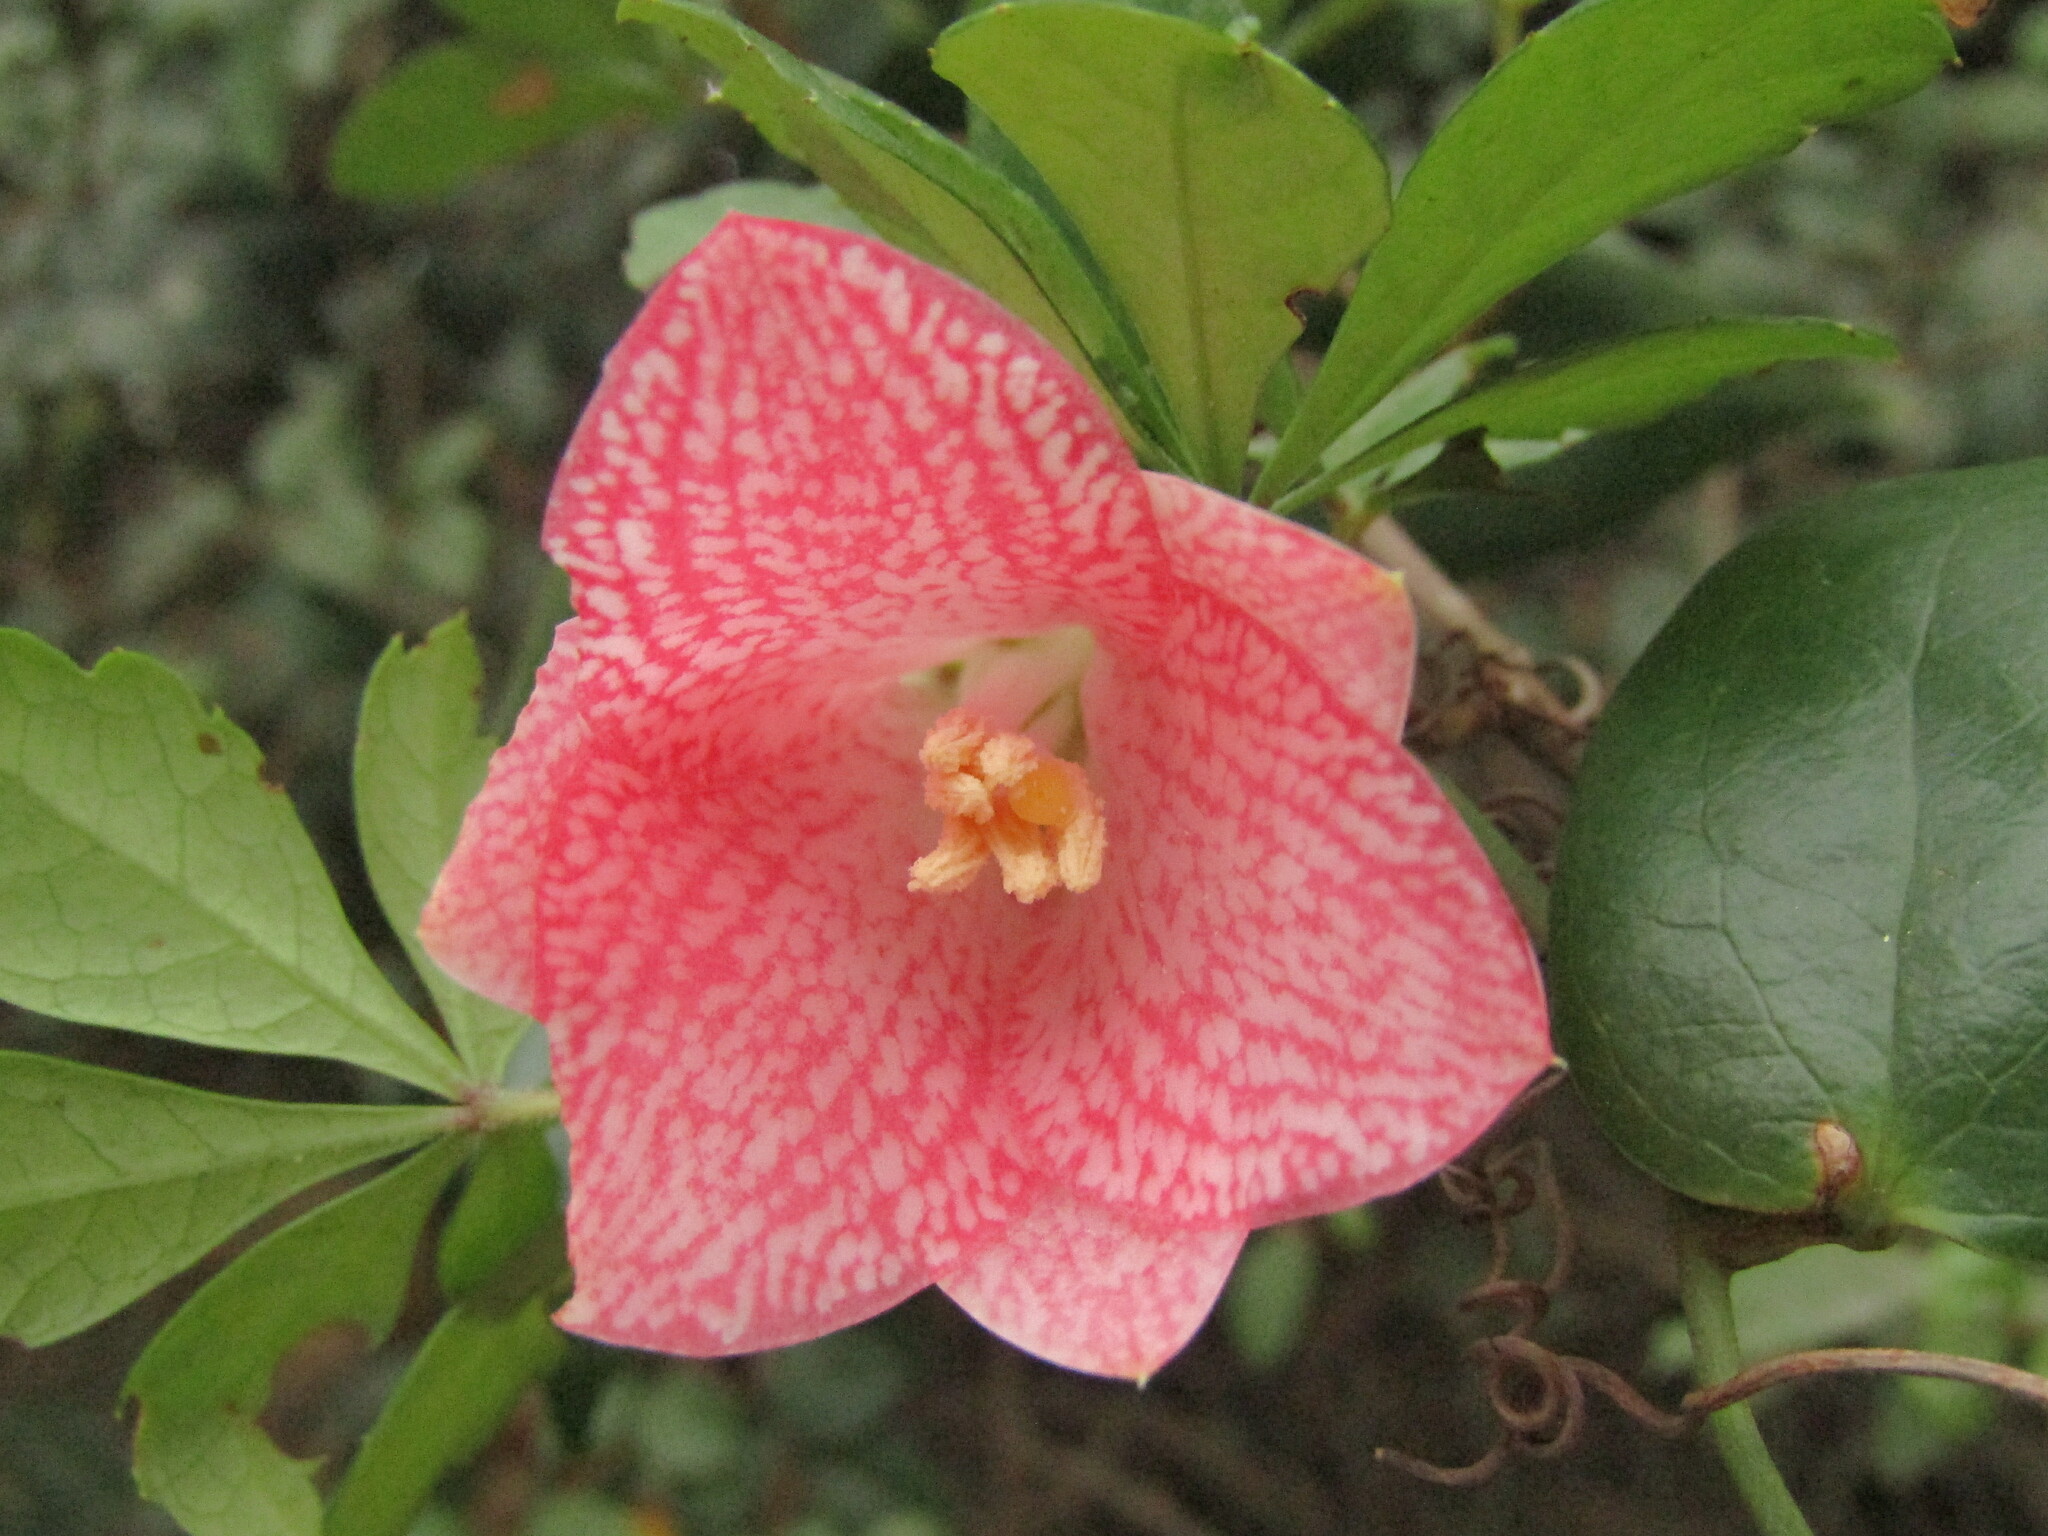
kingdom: Plantae
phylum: Tracheophyta
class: Liliopsida
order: Liliales
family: Philesiaceae
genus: Lapageria
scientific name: Lapageria rosea
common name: Chilean-bellflower
